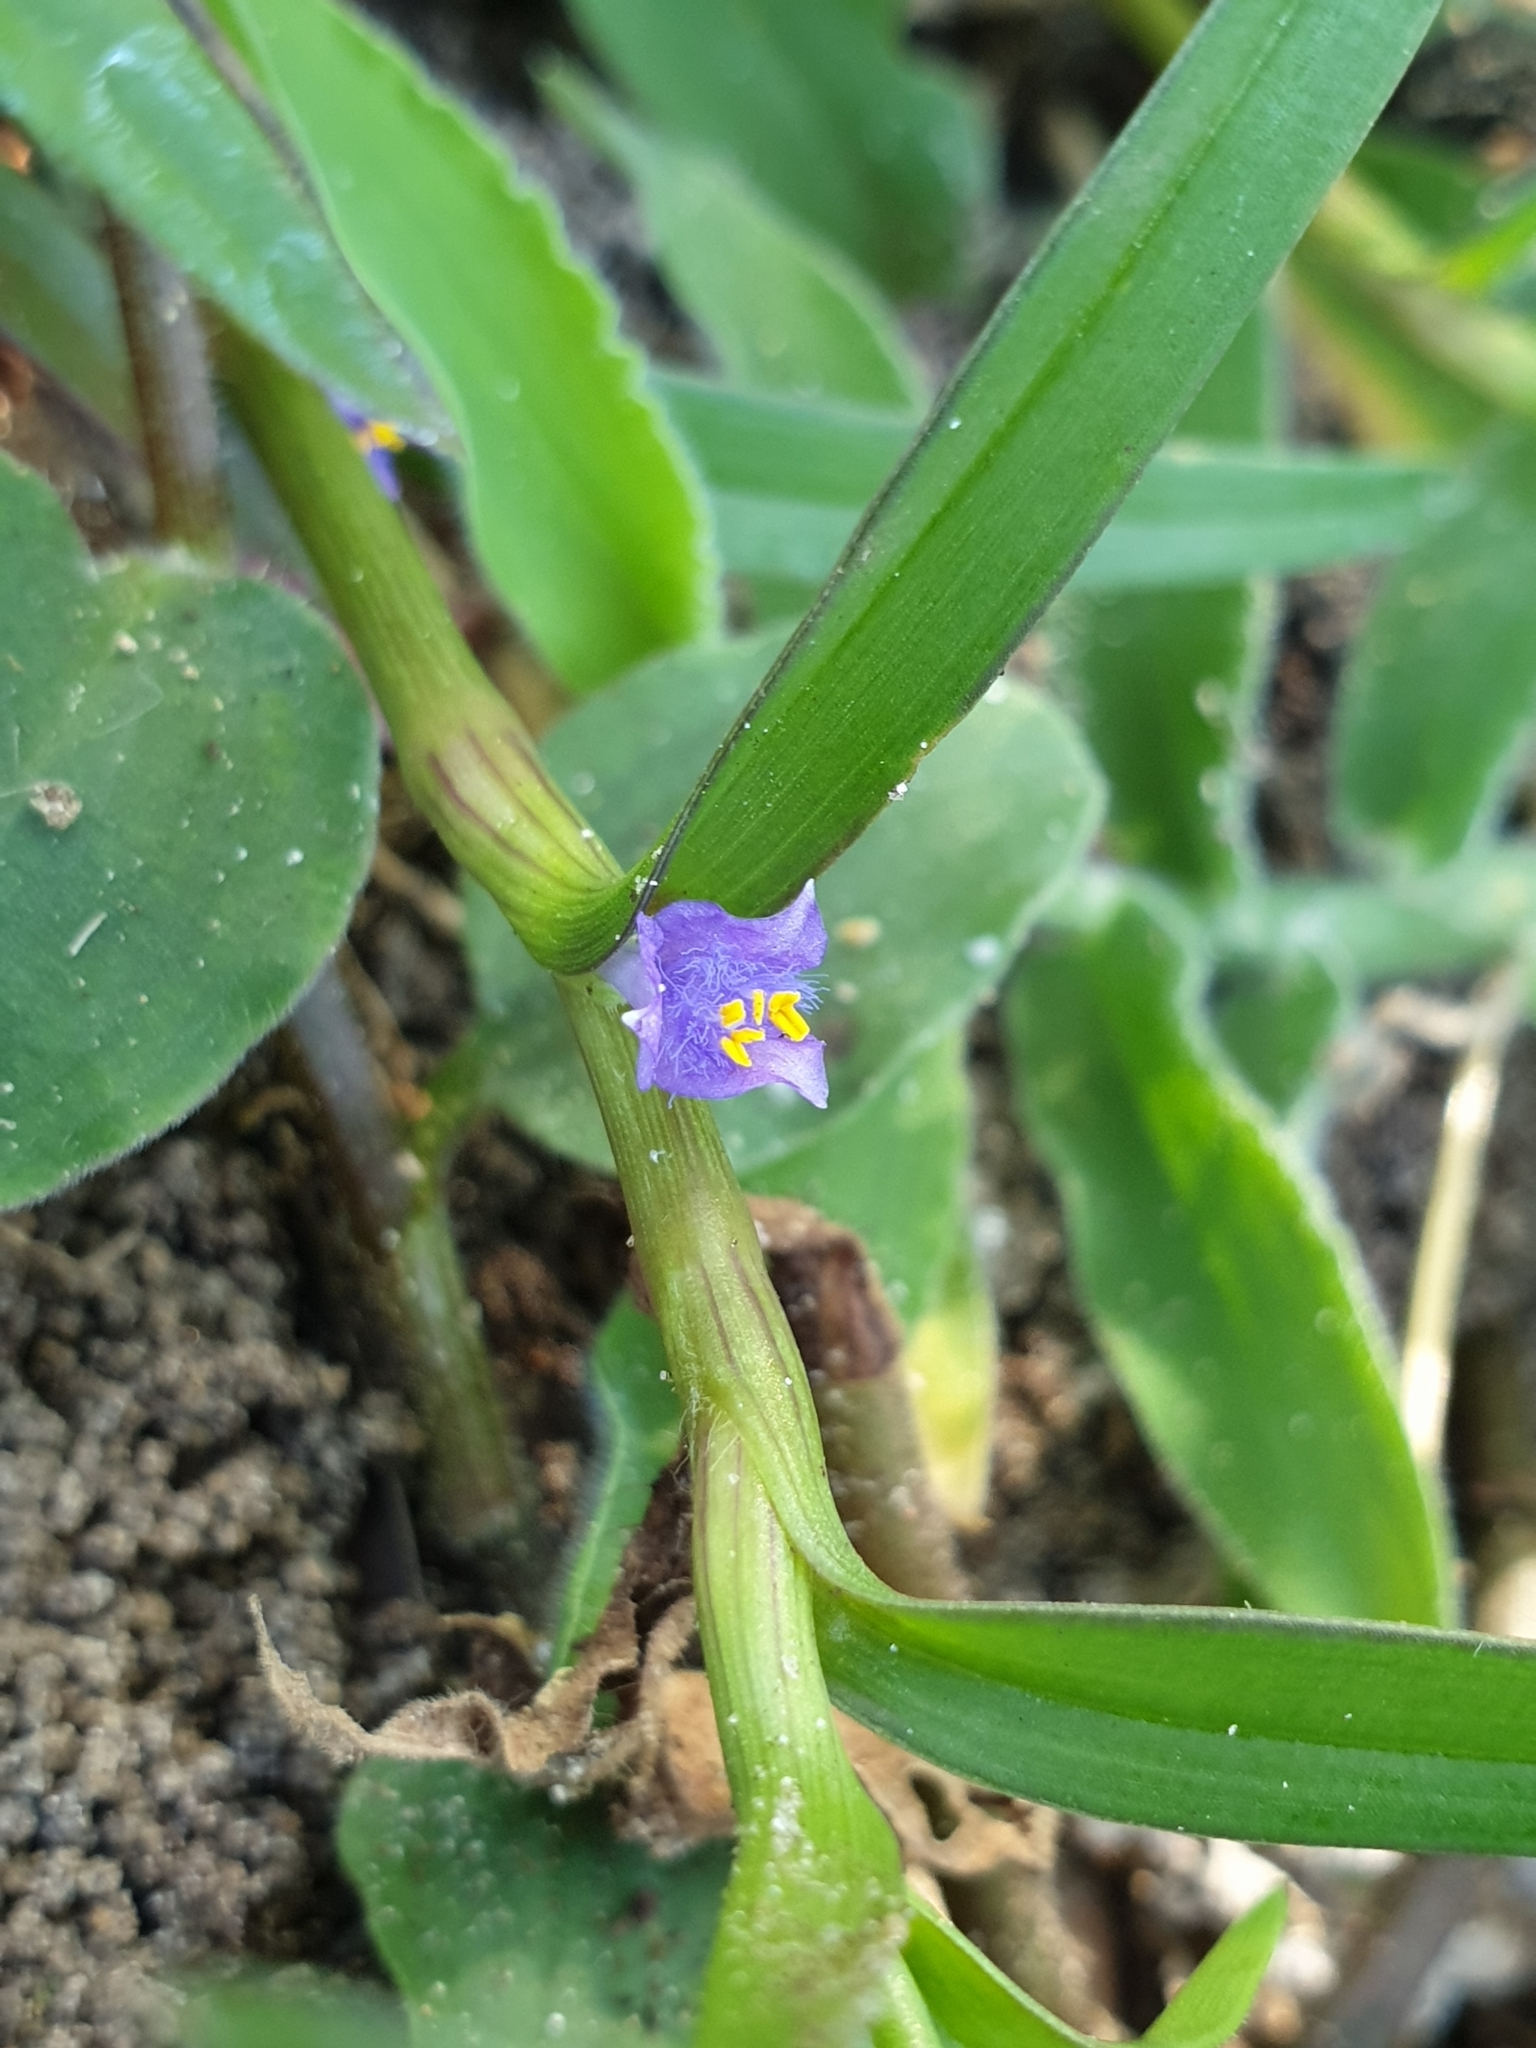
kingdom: Plantae
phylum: Tracheophyta
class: Liliopsida
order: Commelinales
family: Commelinaceae
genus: Cyanotis
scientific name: Cyanotis axillaris
